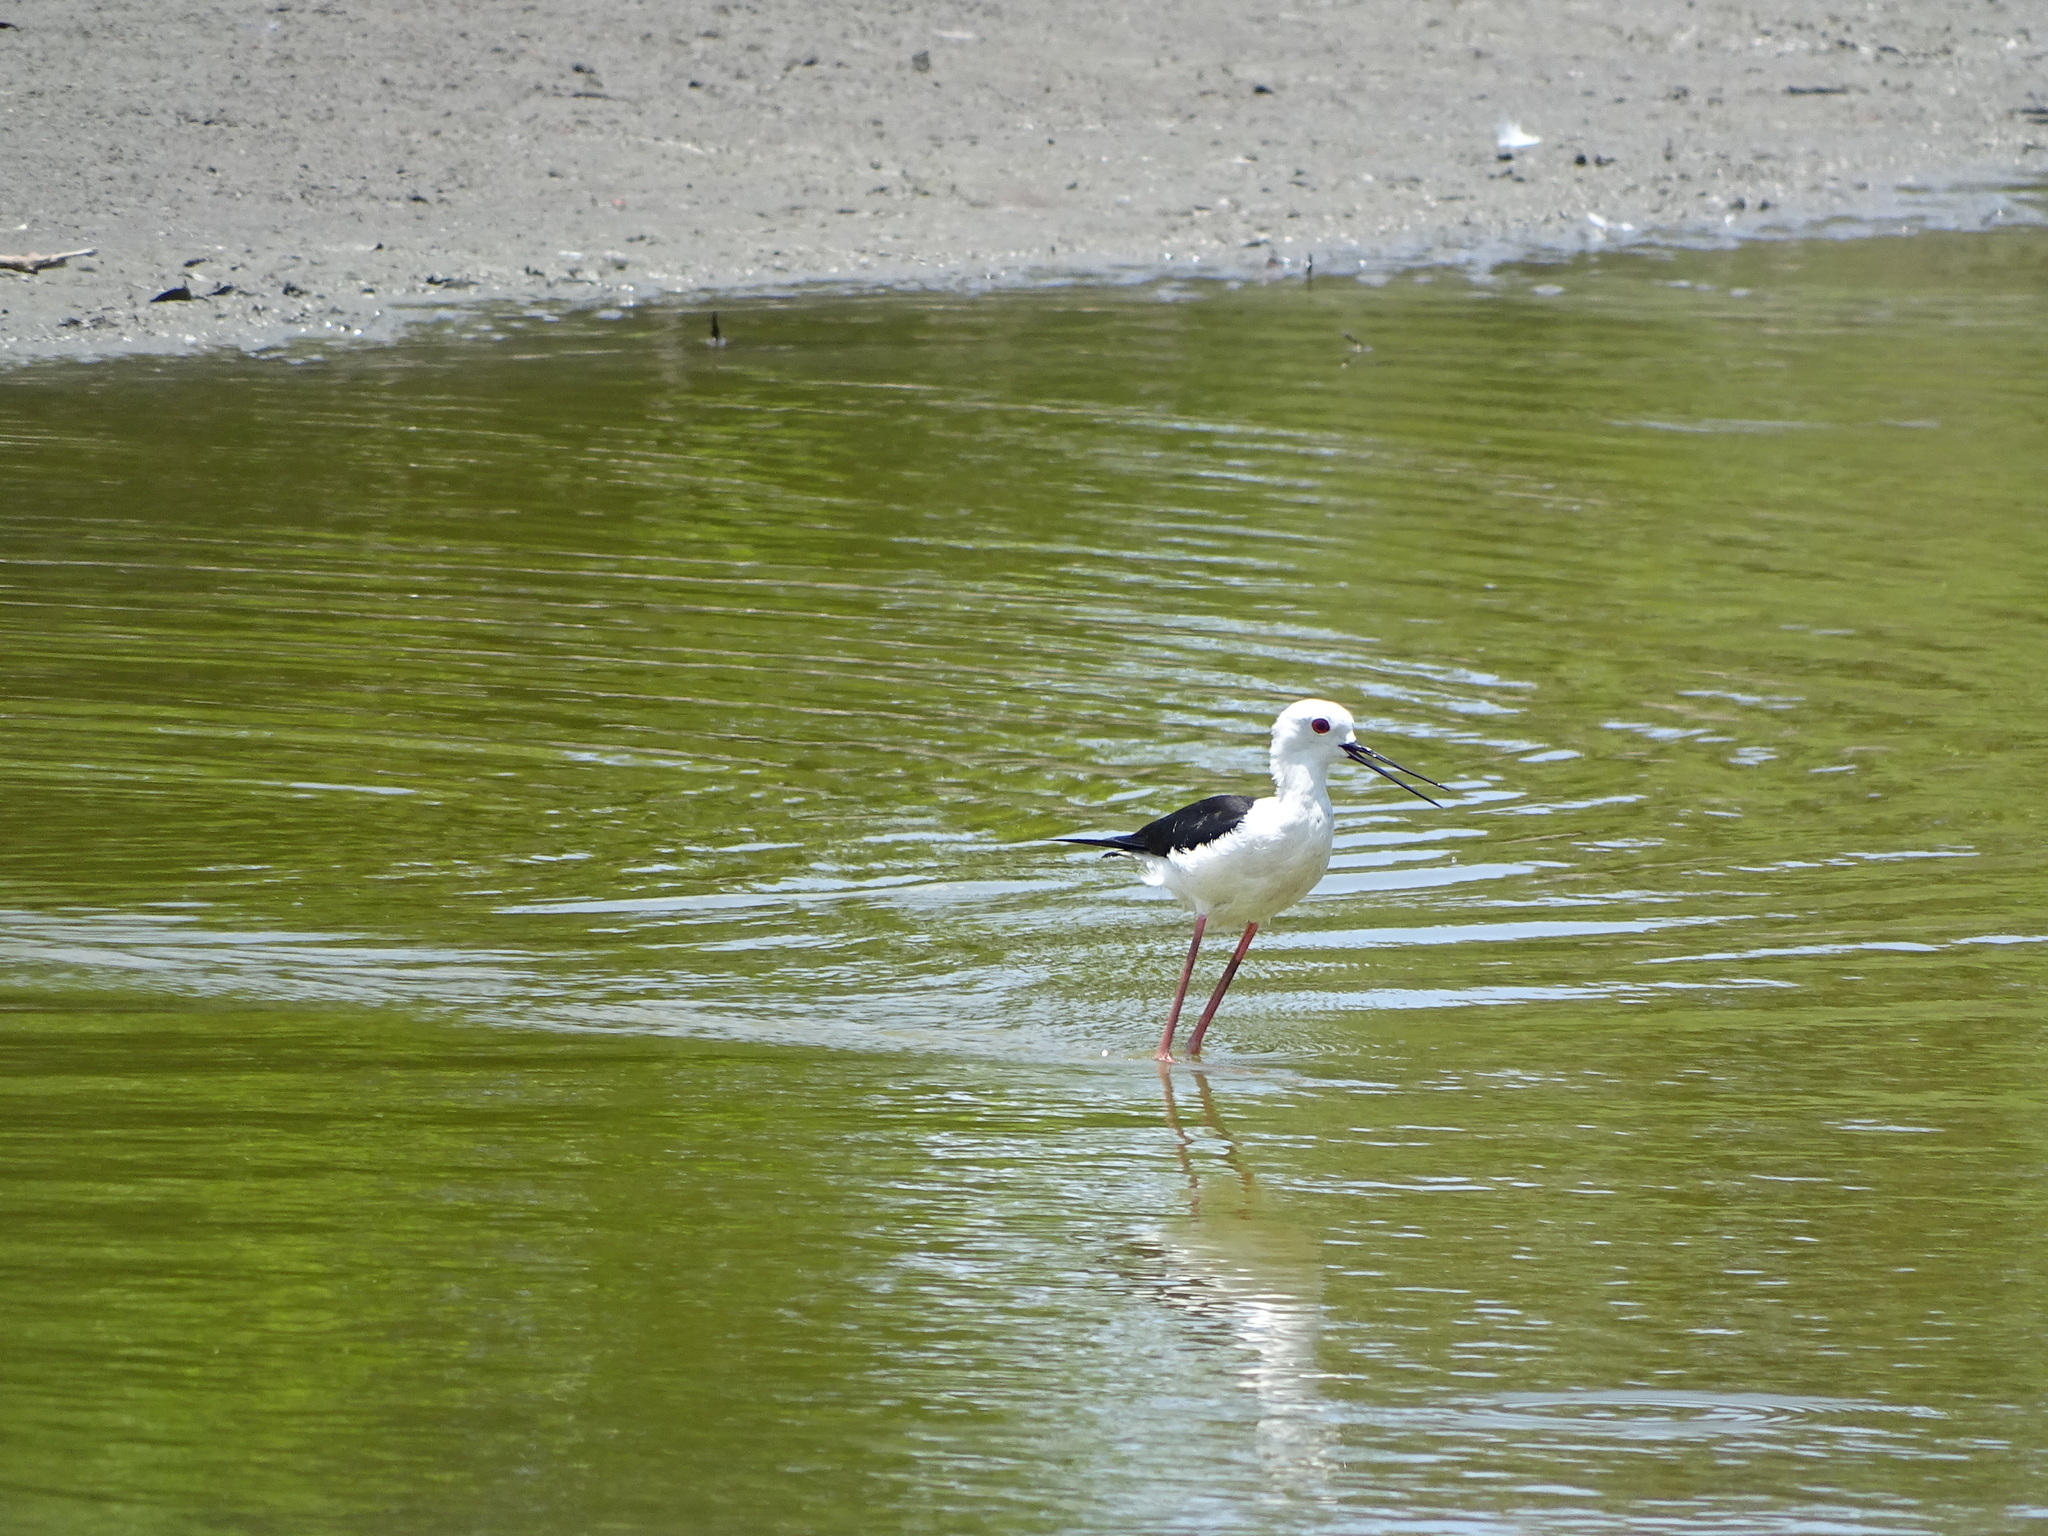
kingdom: Animalia
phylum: Chordata
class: Aves
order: Charadriiformes
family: Recurvirostridae
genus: Himantopus
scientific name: Himantopus himantopus
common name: Black-winged stilt
